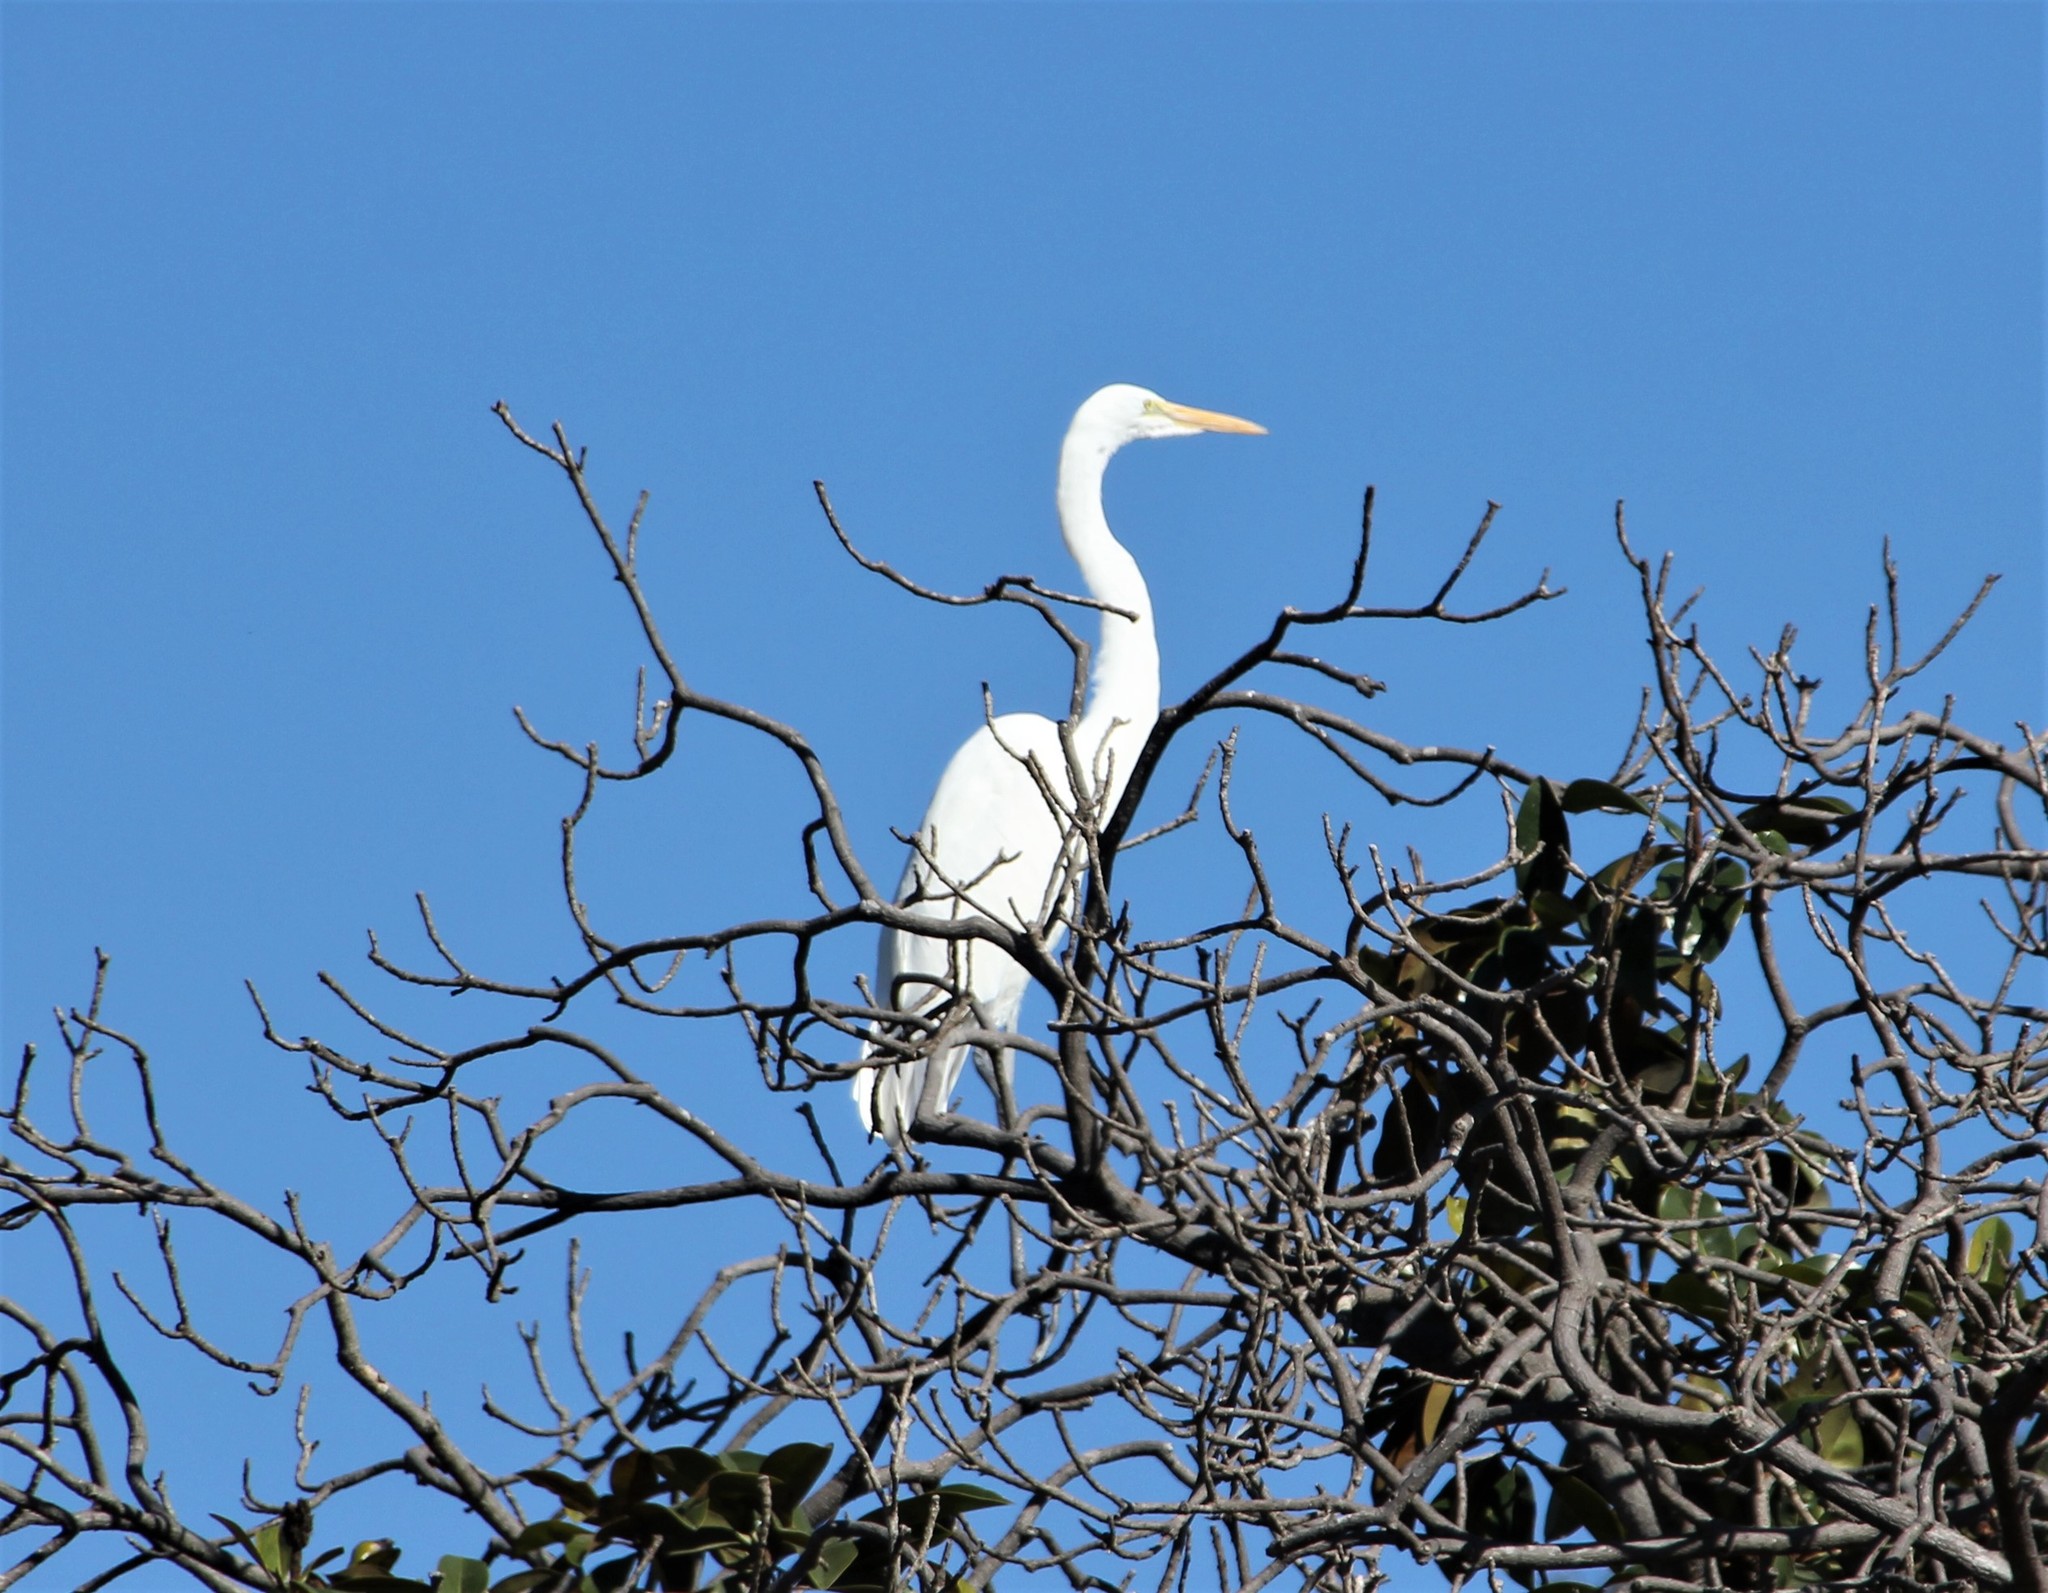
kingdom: Animalia
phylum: Chordata
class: Aves
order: Pelecaniformes
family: Ardeidae
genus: Ardea
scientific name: Ardea alba
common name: Great egret
